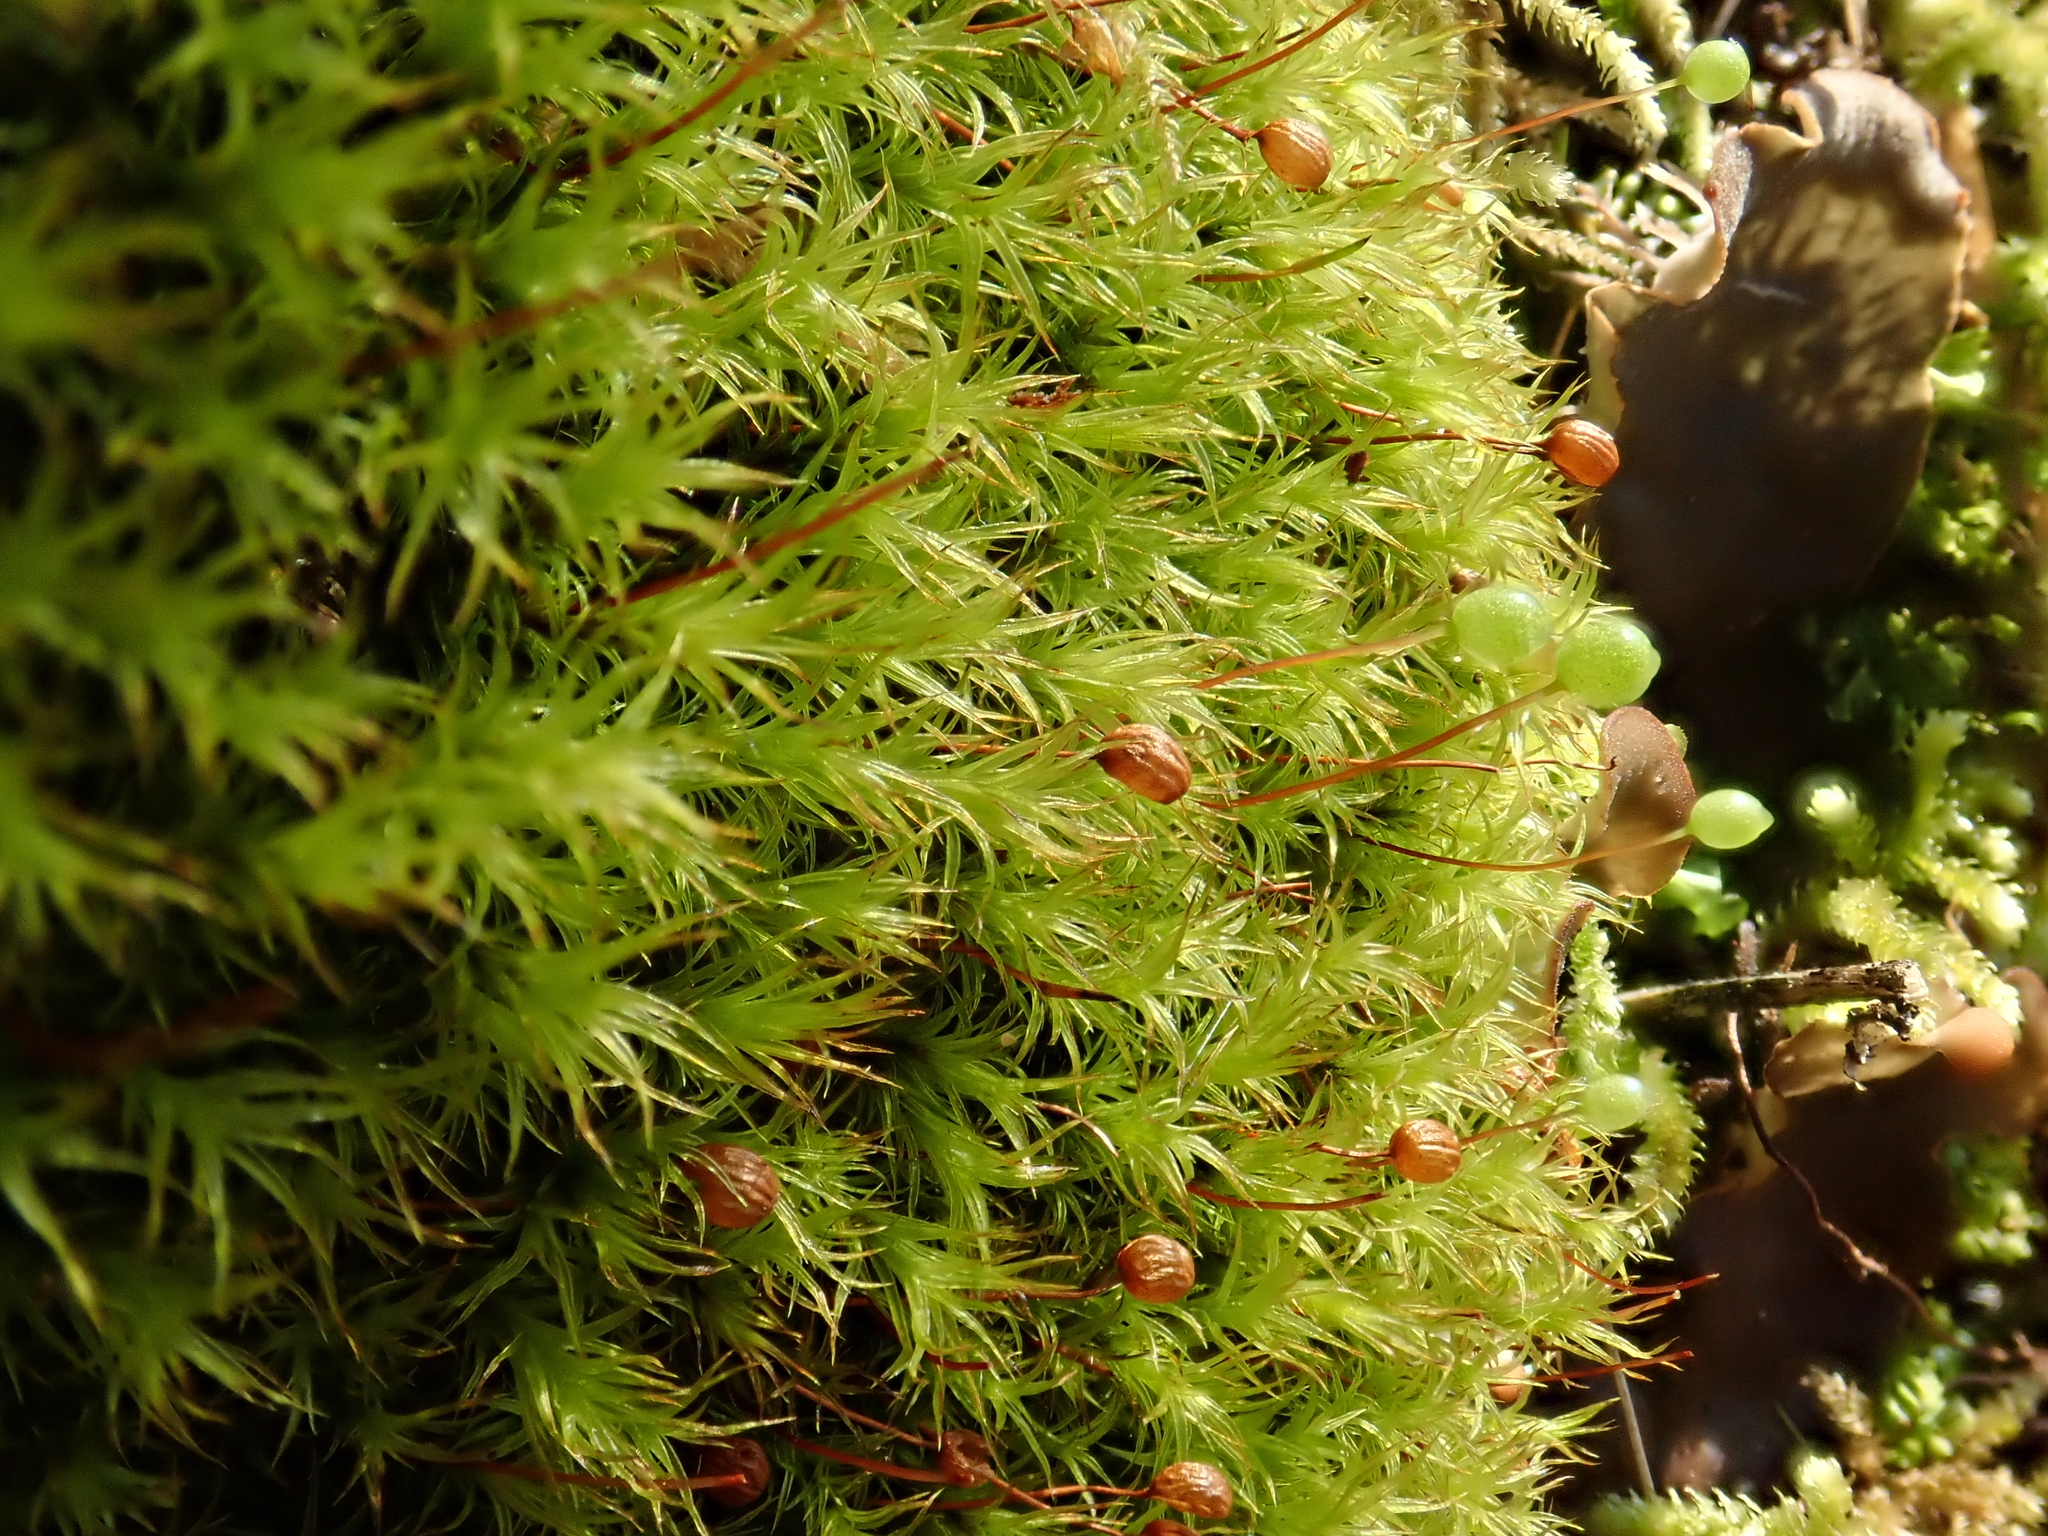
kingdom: Plantae
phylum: Bryophyta
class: Bryopsida
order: Bartramiales
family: Bartramiaceae
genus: Plagiopus
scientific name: Plagiopus oederianus
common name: Oeder's apple moss
